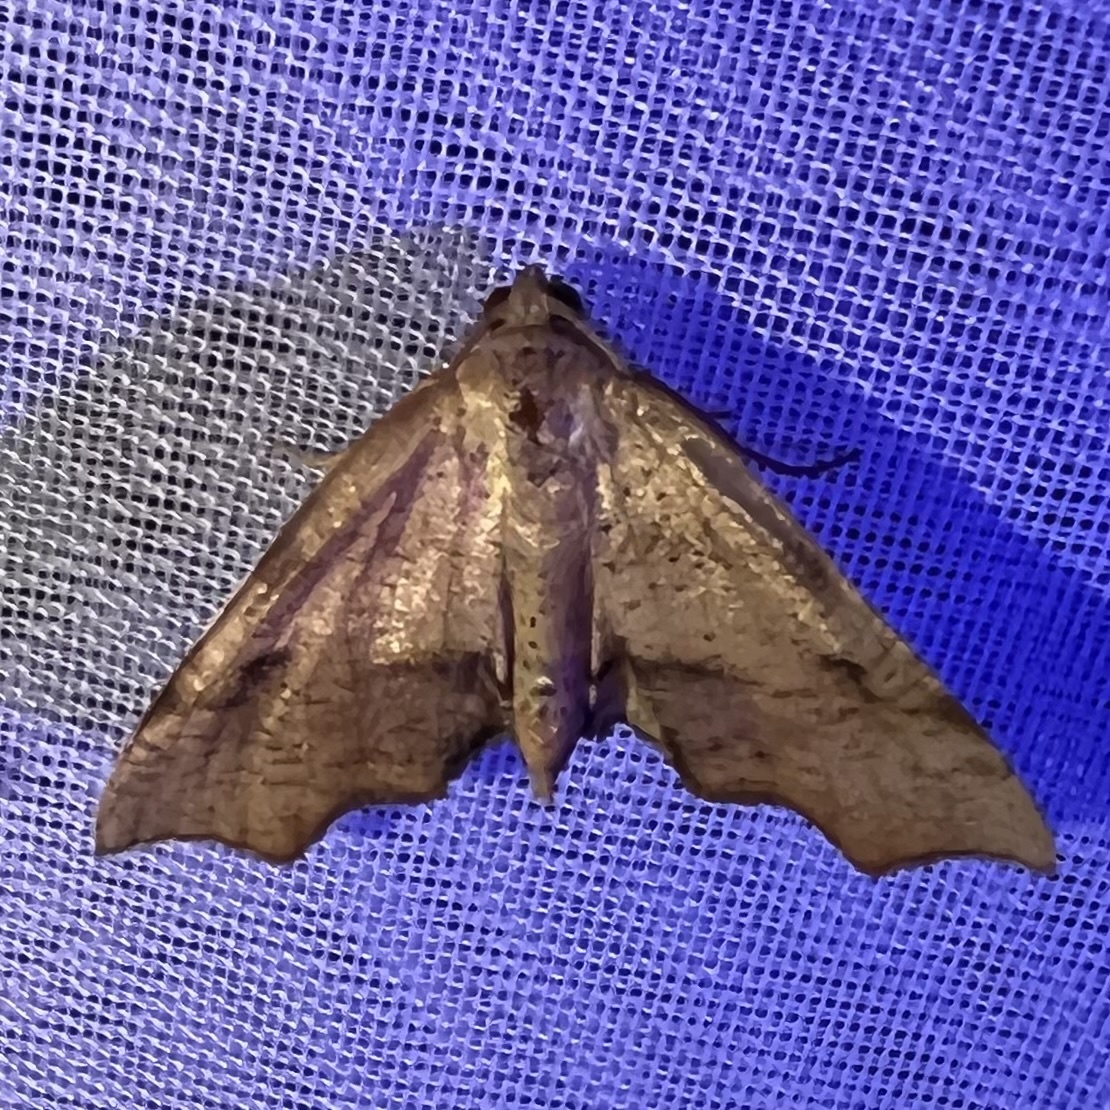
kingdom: Animalia
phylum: Arthropoda
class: Insecta
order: Lepidoptera
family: Geometridae
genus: Plagodis
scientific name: Plagodis fervidaria
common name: Fervid plagodis
